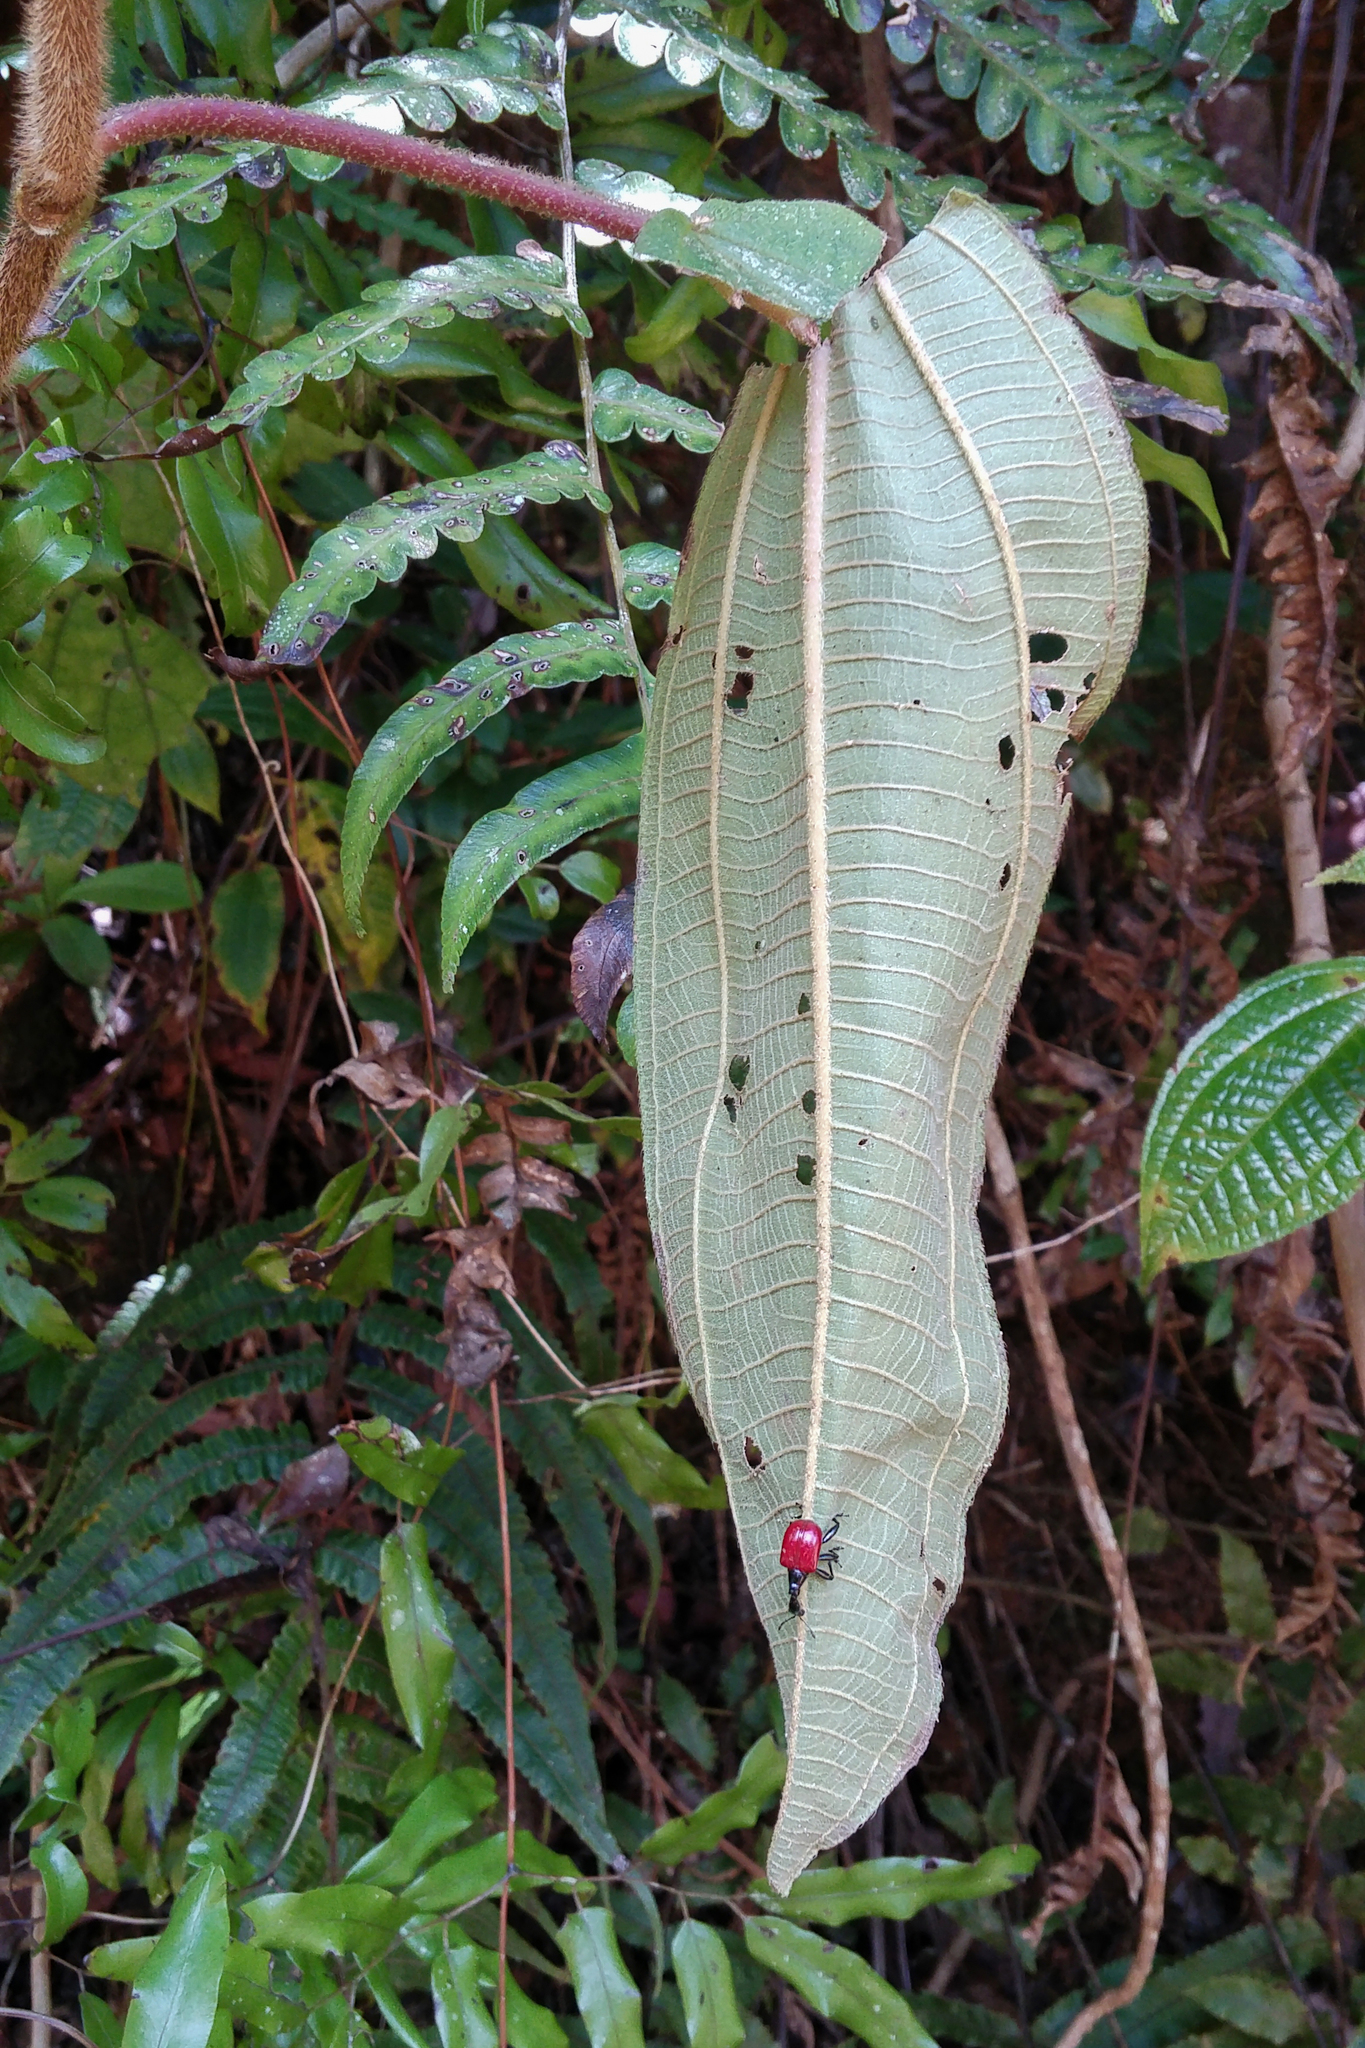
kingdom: Animalia
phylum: Arthropoda
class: Insecta
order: Coleoptera
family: Attelabidae
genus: Trachelophorus
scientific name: Trachelophorus giraffa
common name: Giraffe weevil
